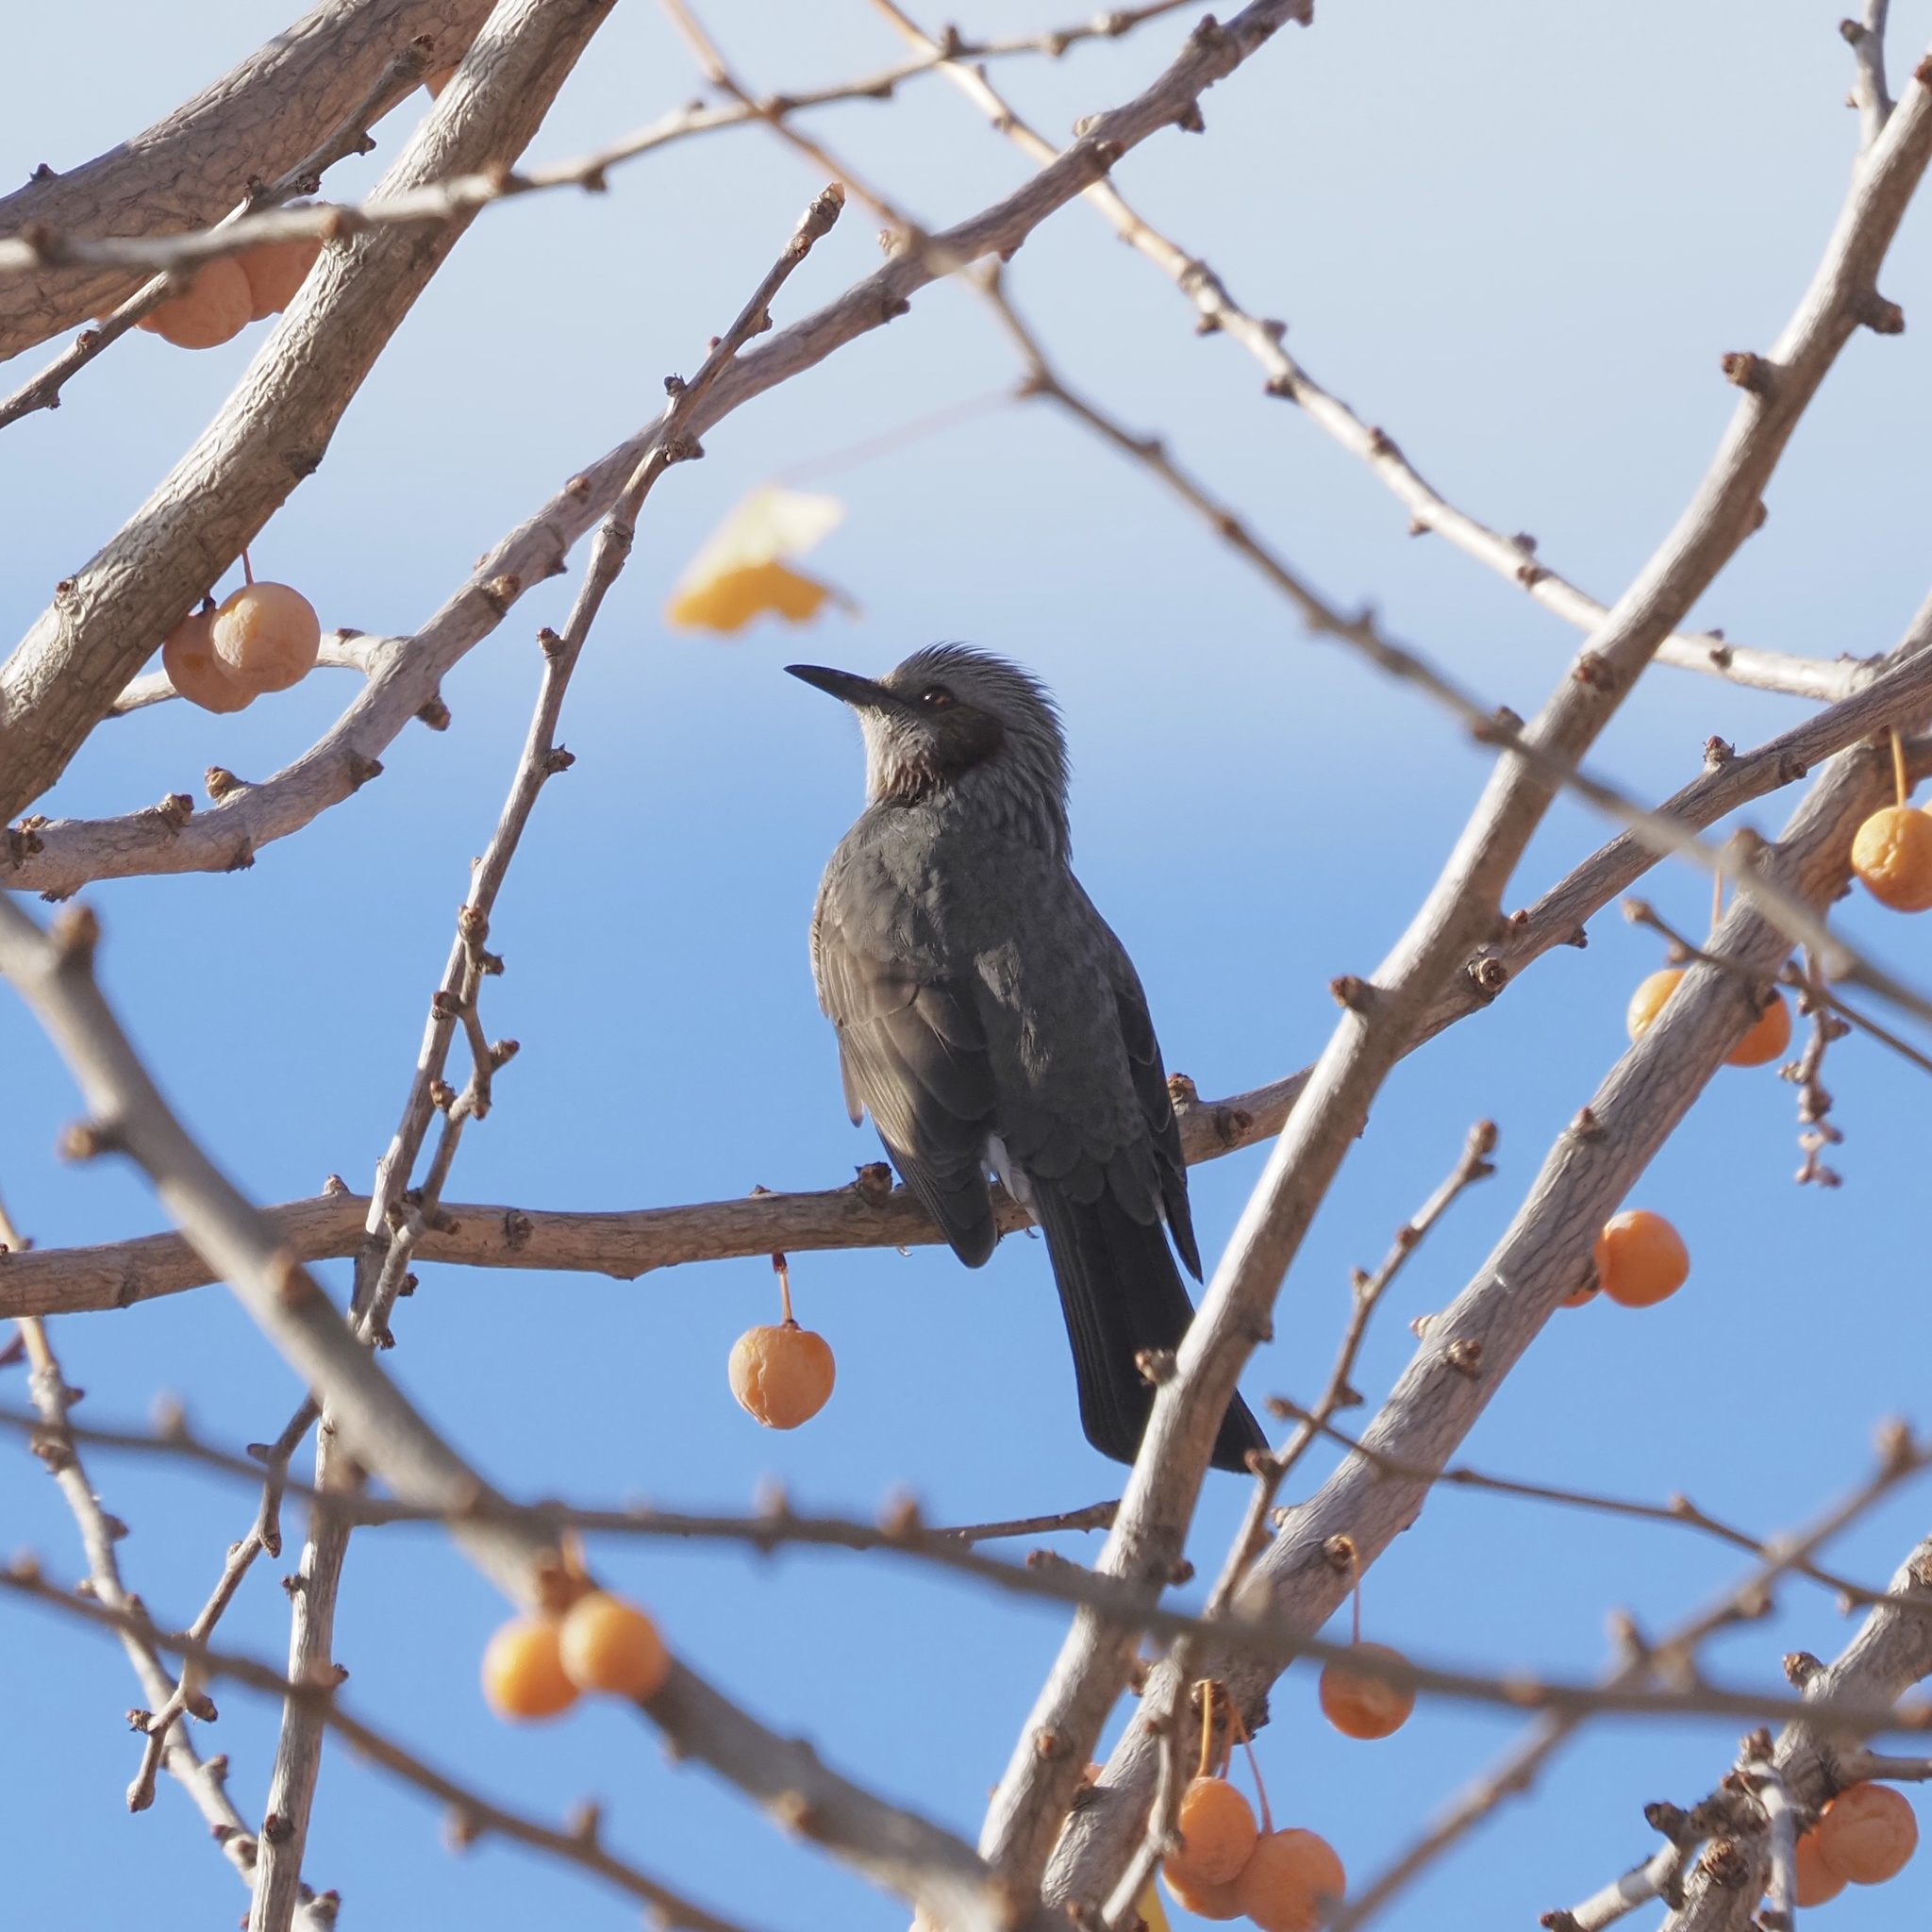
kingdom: Animalia
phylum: Chordata
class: Aves
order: Passeriformes
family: Pycnonotidae
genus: Hypsipetes
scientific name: Hypsipetes amaurotis
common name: Brown-eared bulbul
